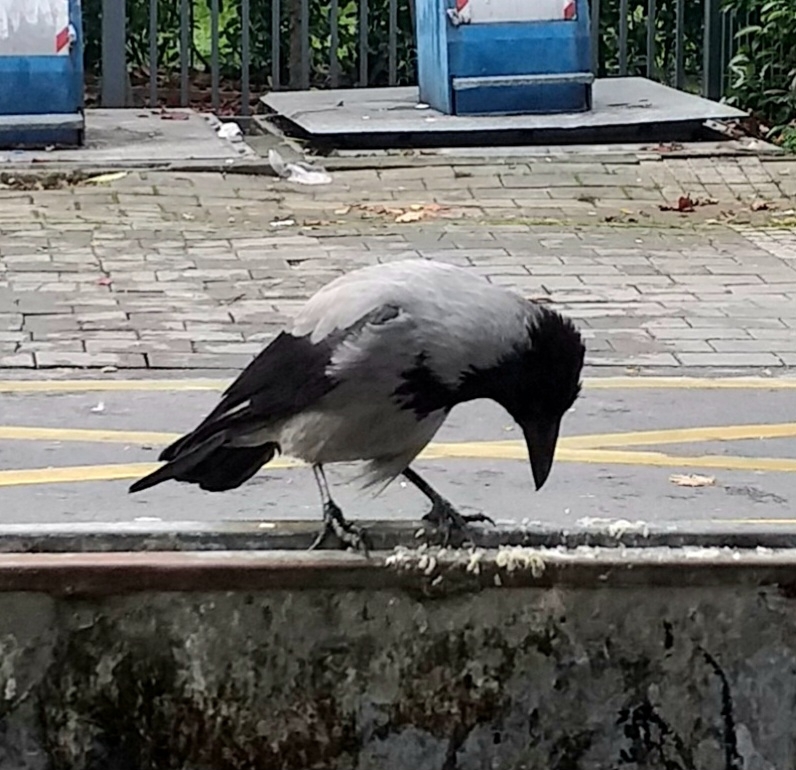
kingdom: Animalia
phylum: Chordata
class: Aves
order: Passeriformes
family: Corvidae
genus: Corvus
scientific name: Corvus cornix
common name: Hooded crow
